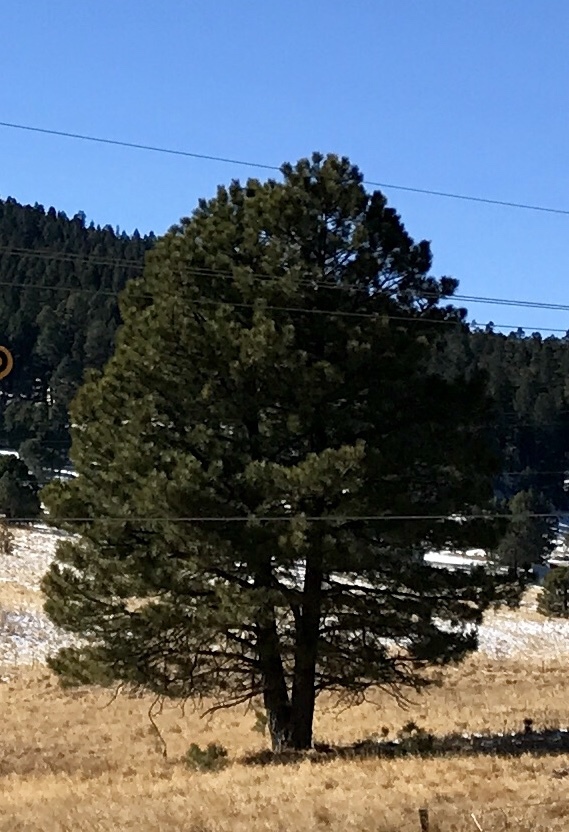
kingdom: Plantae
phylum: Tracheophyta
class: Pinopsida
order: Pinales
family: Pinaceae
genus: Pinus
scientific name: Pinus ponderosa
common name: Western yellow-pine
